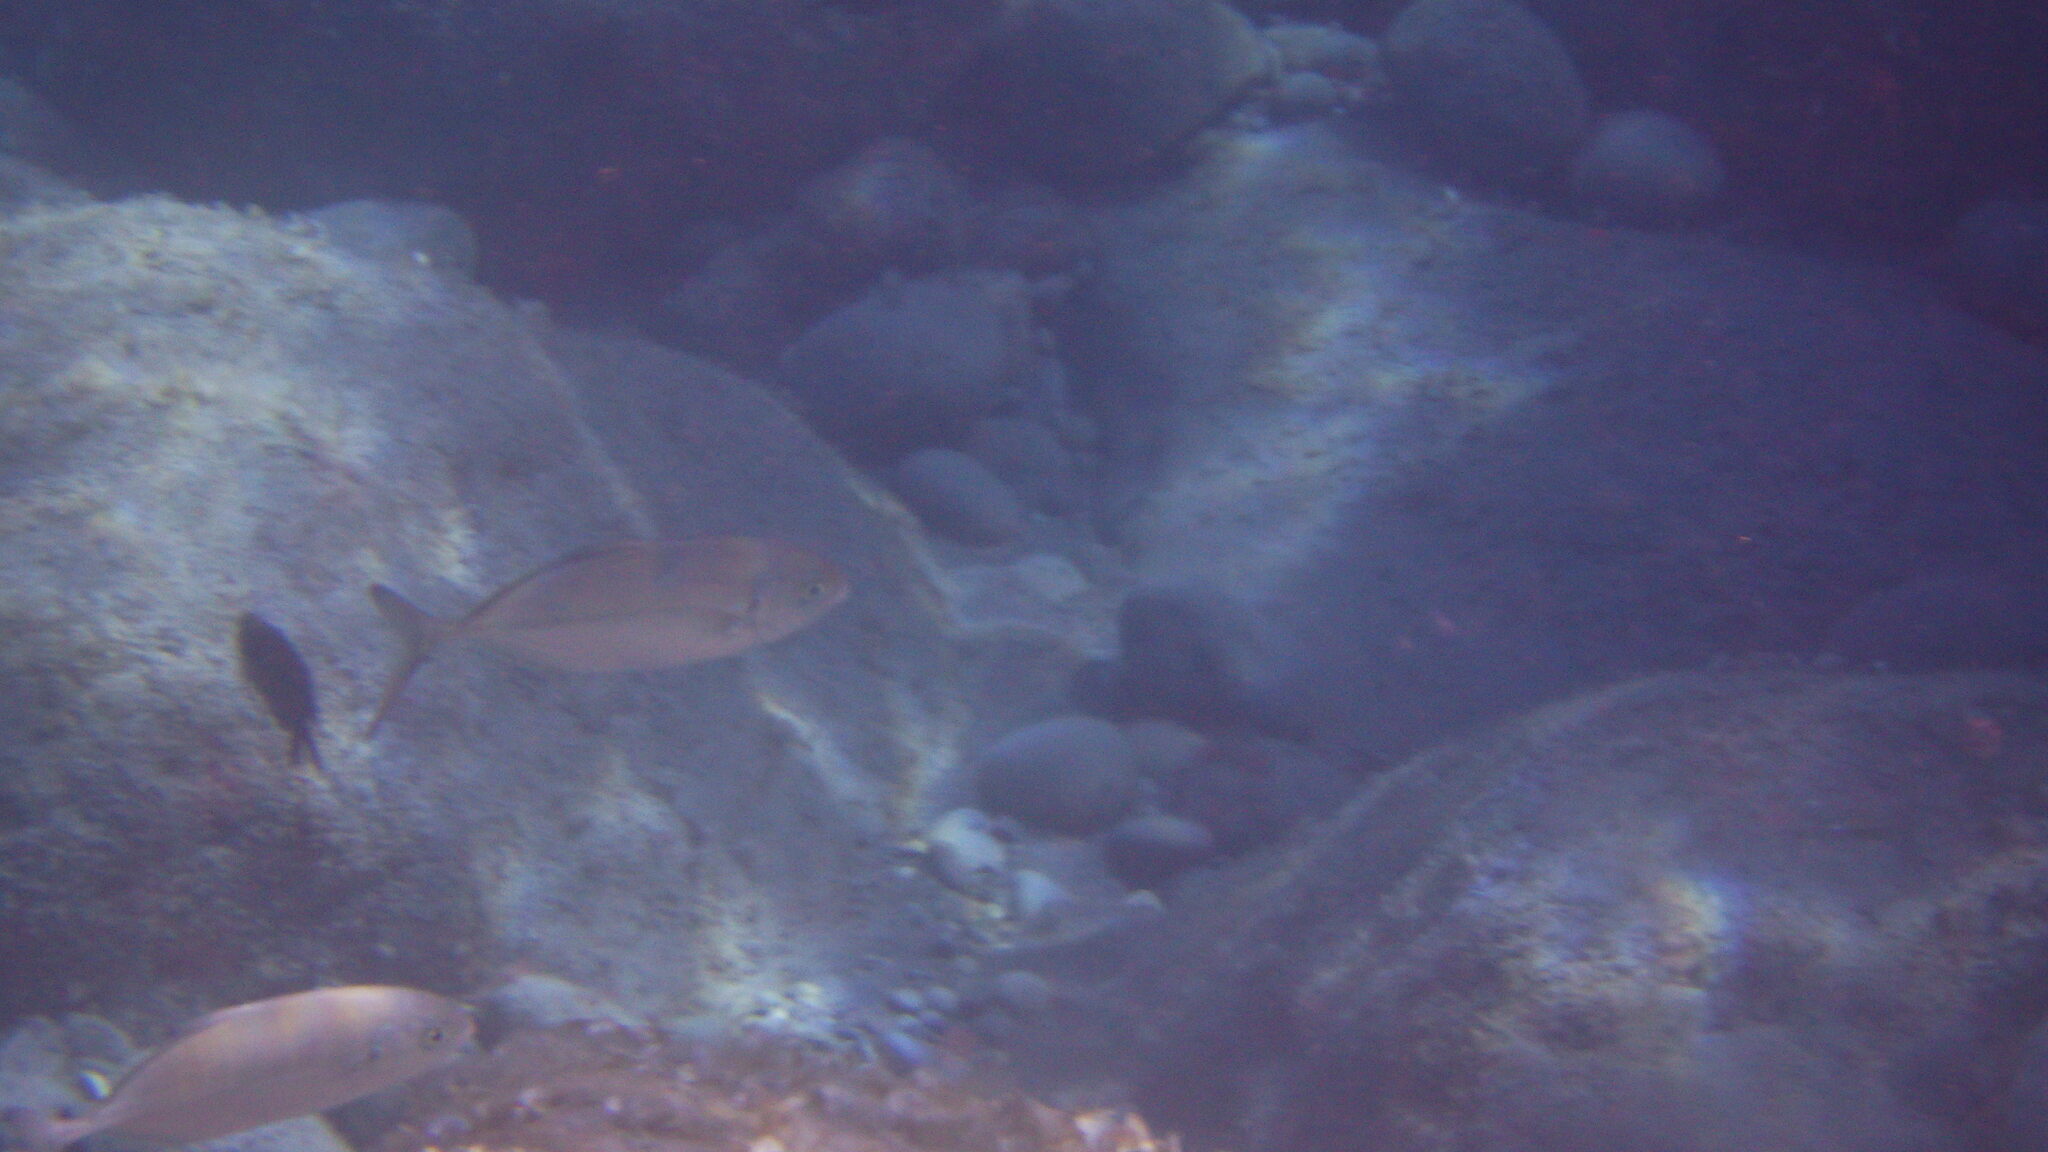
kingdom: Animalia
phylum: Chordata
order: Perciformes
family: Carangidae
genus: Caranx
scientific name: Caranx crysos
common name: Blue runner
